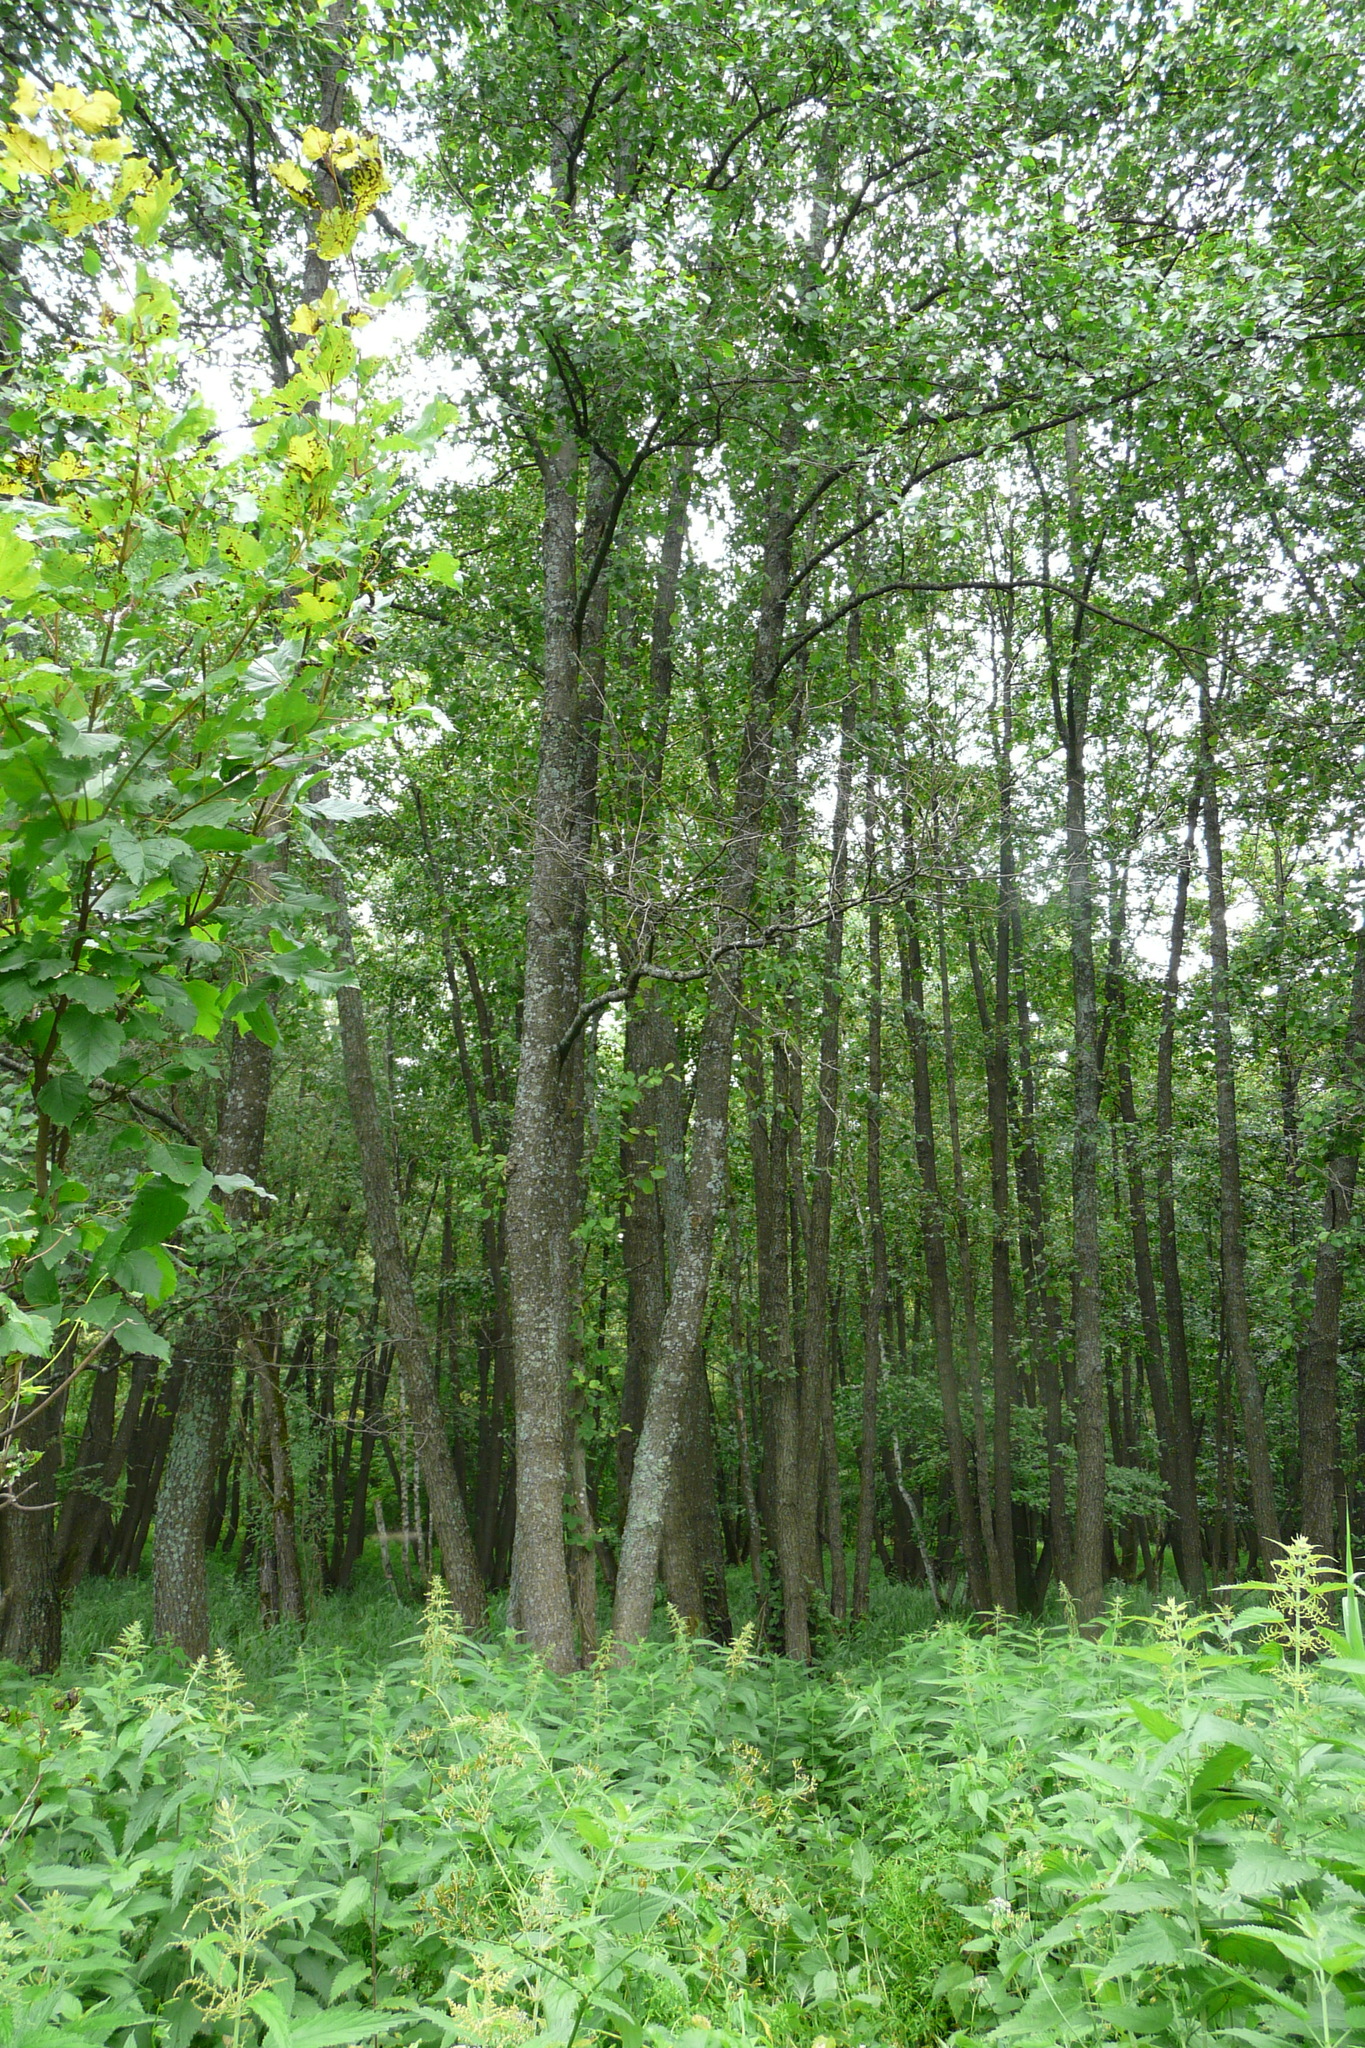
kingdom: Plantae
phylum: Tracheophyta
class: Magnoliopsida
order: Fagales
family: Betulaceae
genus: Alnus
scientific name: Alnus glutinosa
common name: Black alder
